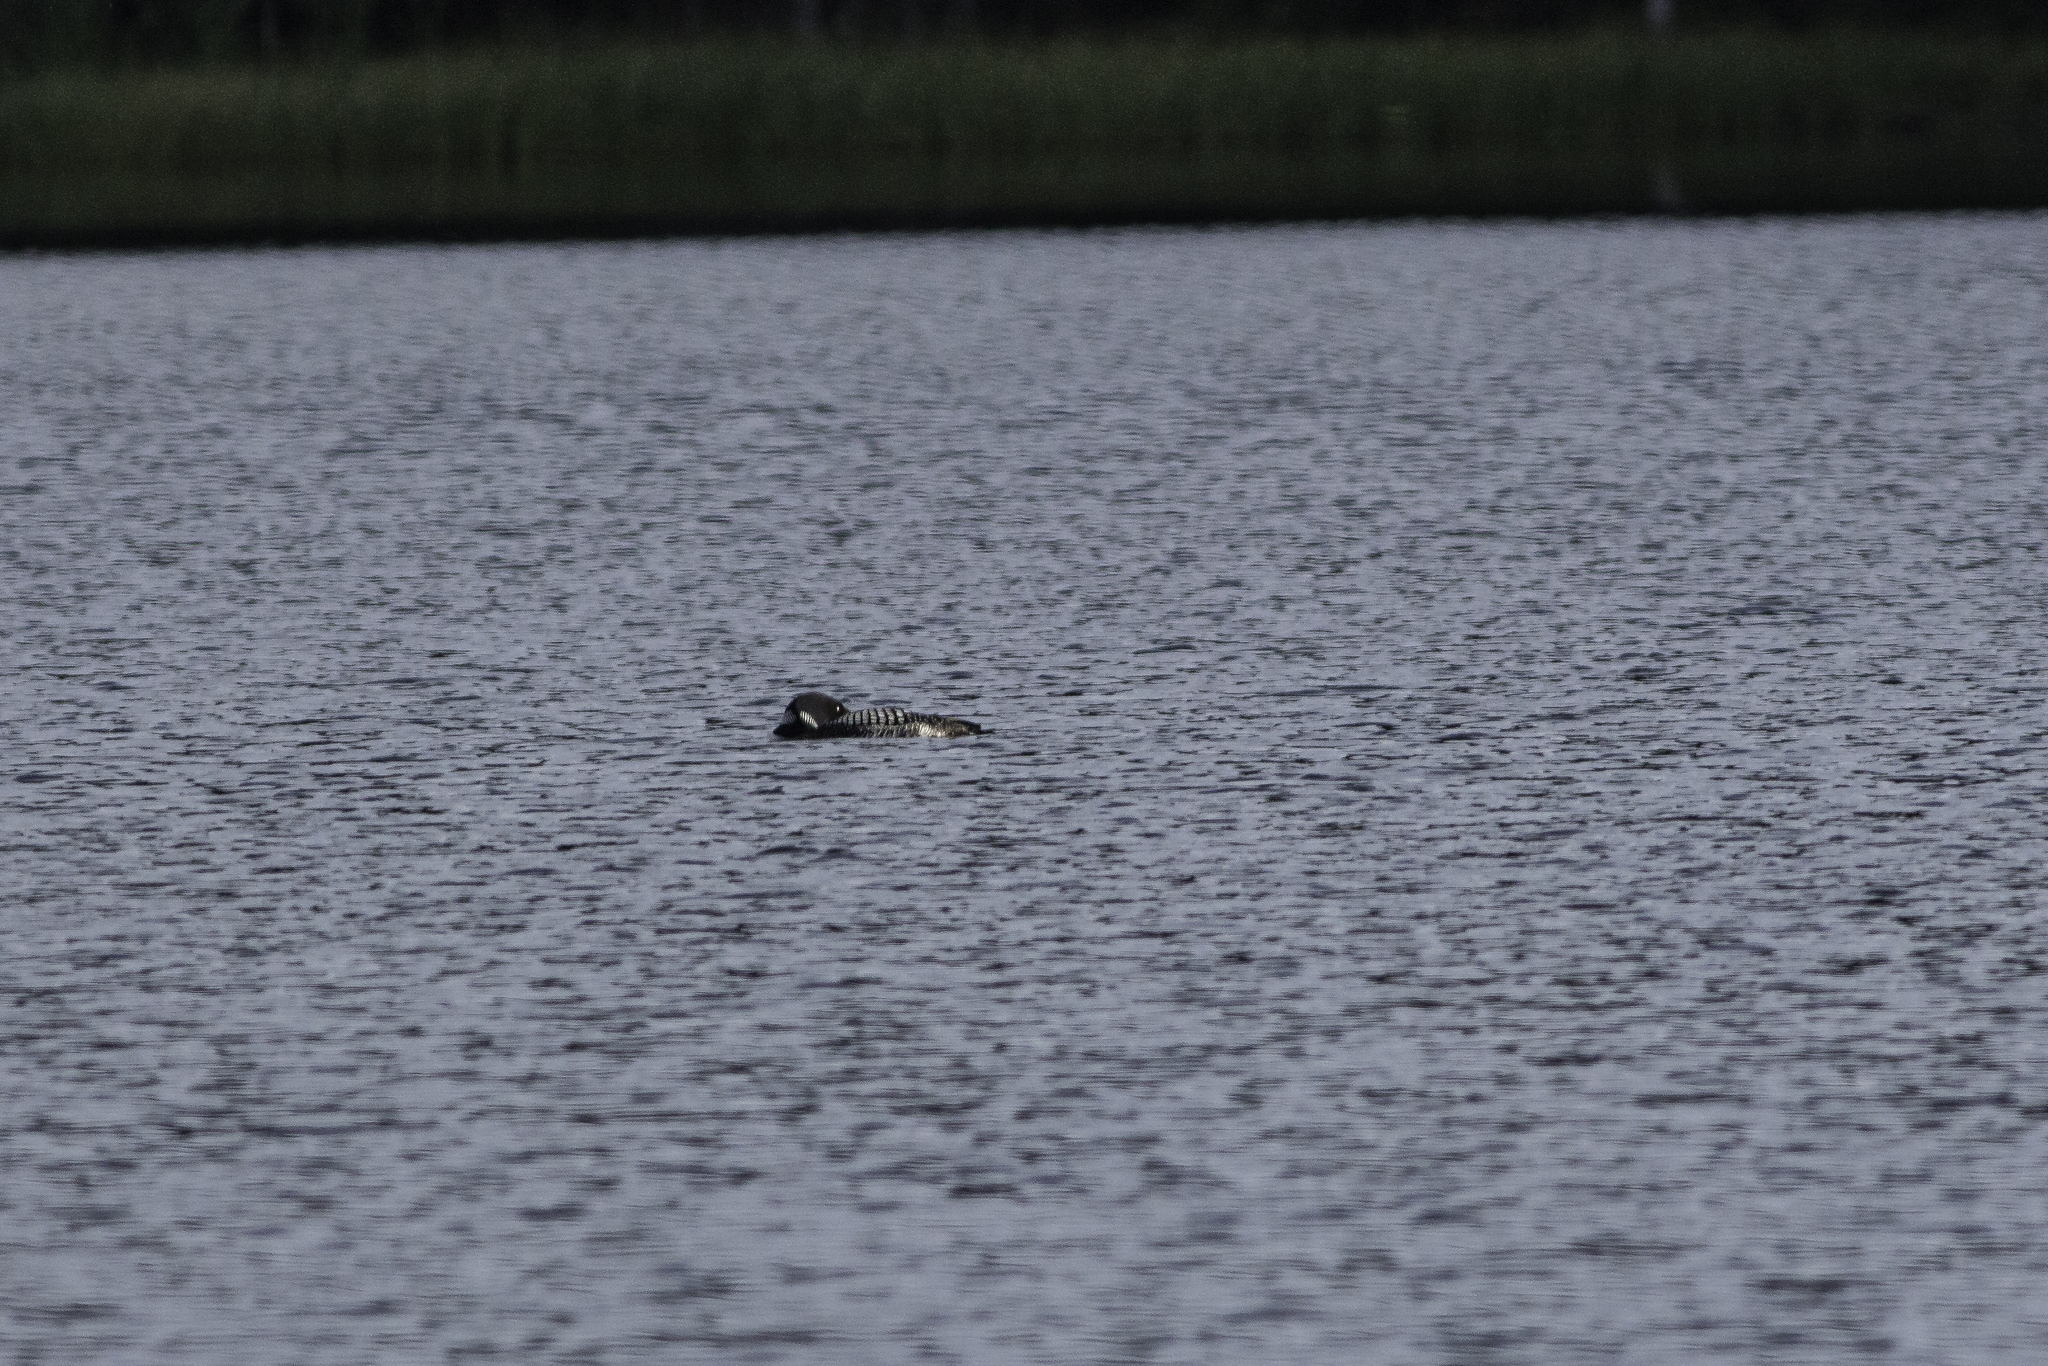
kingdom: Animalia
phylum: Chordata
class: Aves
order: Gaviiformes
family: Gaviidae
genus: Gavia
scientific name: Gavia immer
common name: Common loon
